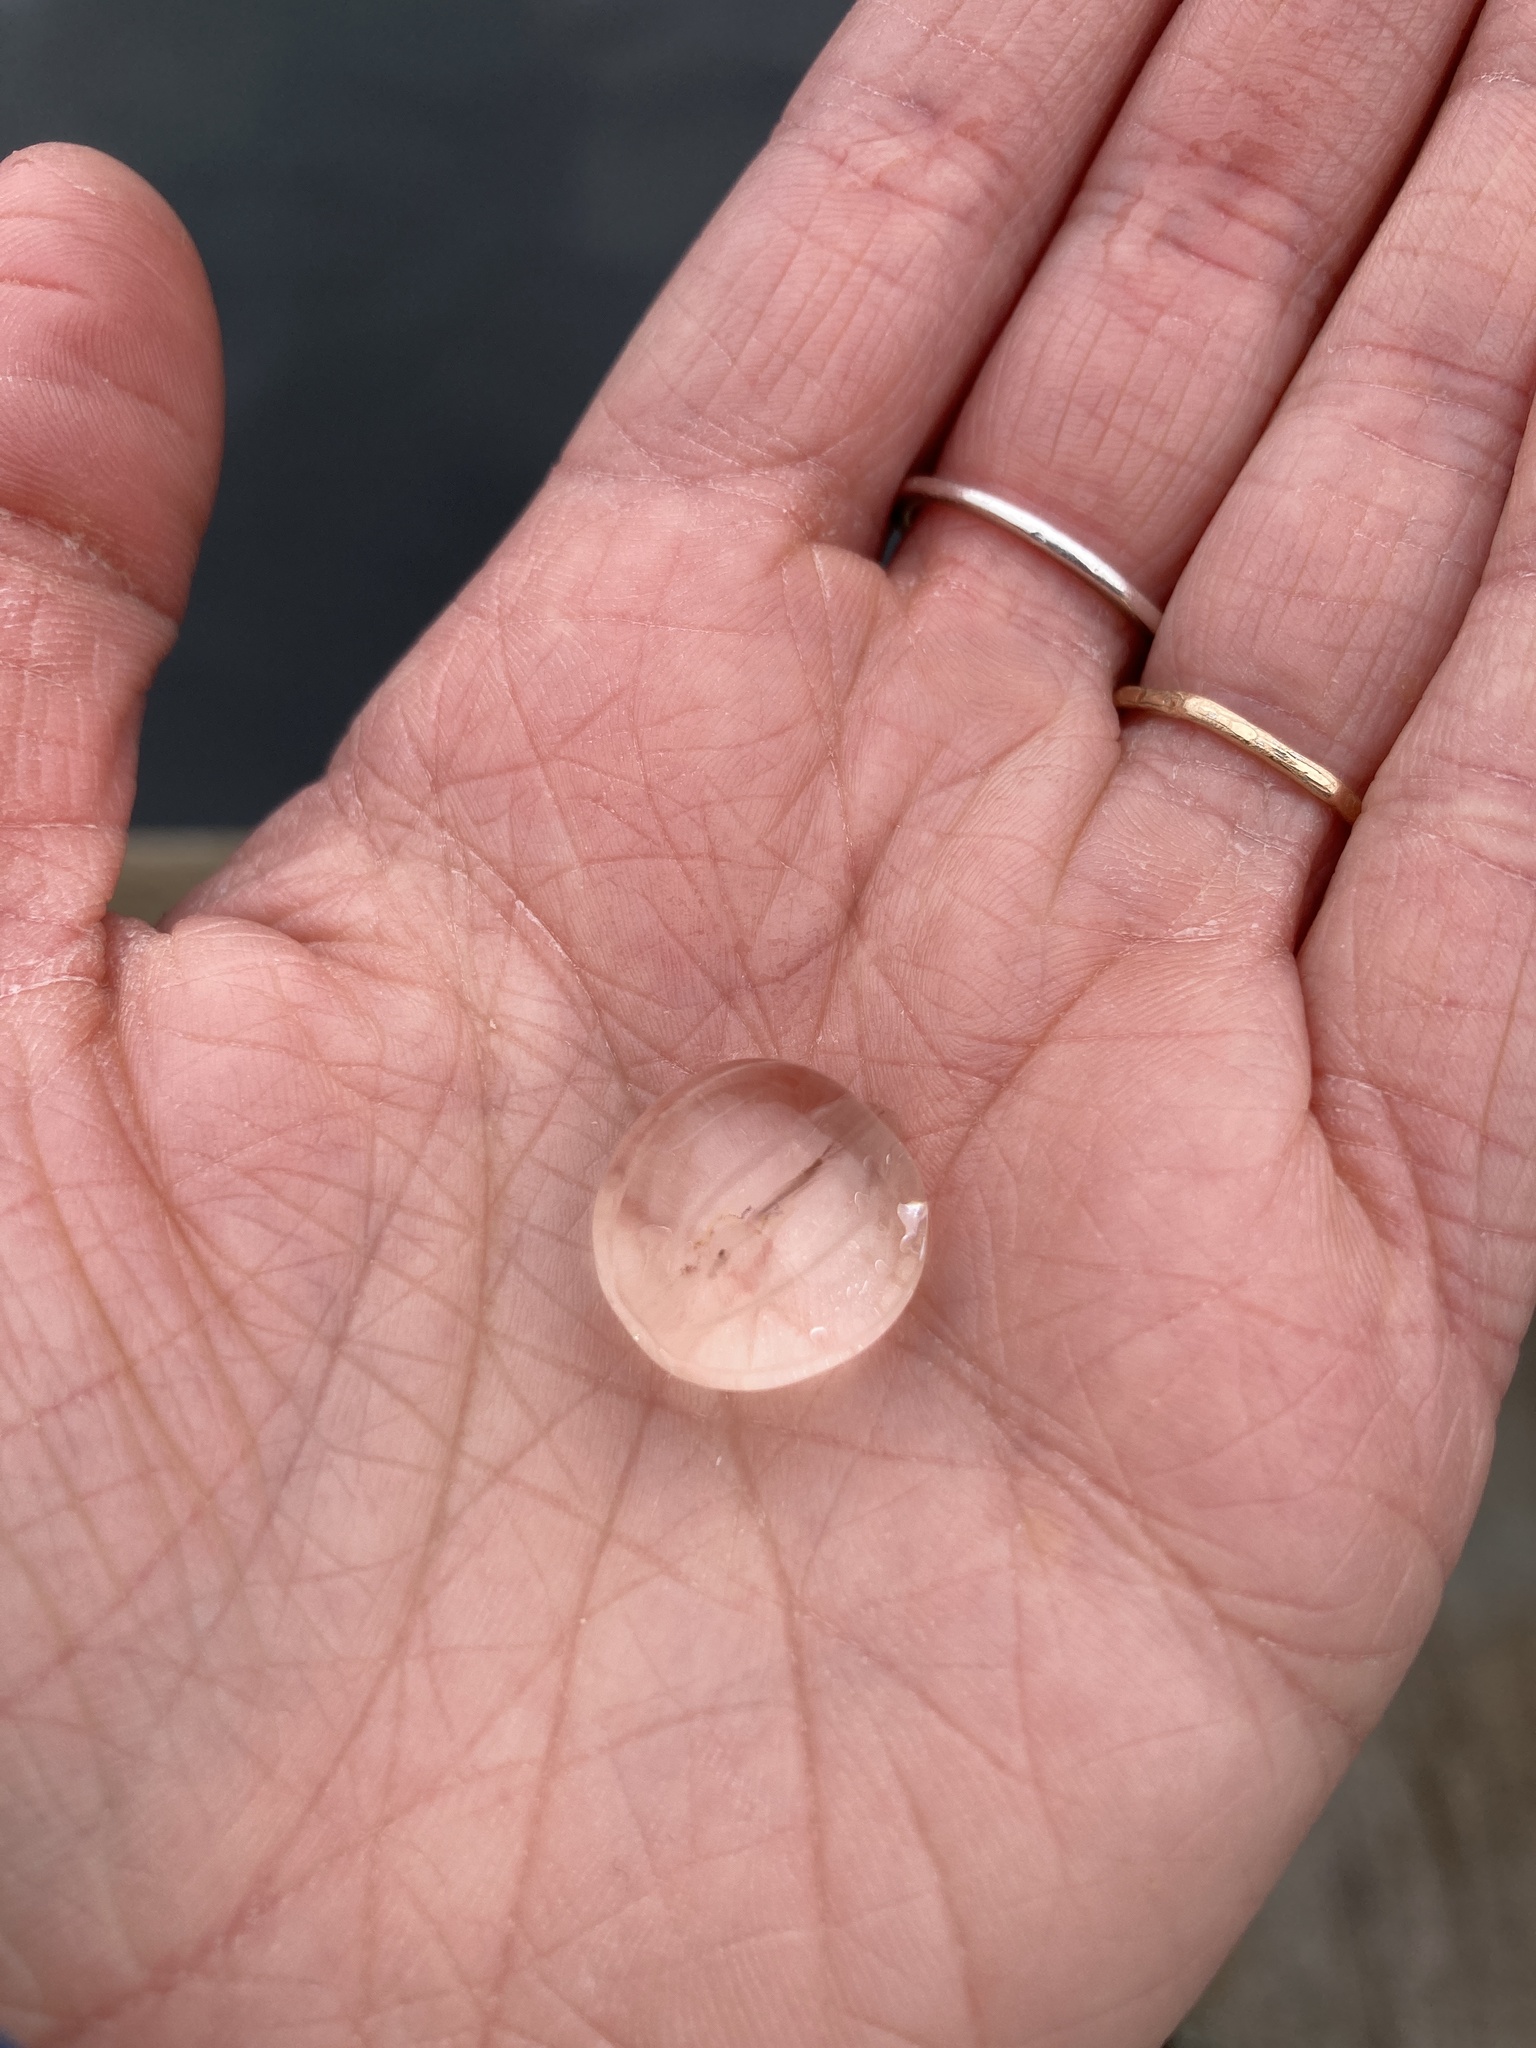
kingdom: Animalia
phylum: Ctenophora
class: Tentaculata
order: Cydippida
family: Pleurobrachiidae
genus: Pleurobrachia
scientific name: Pleurobrachia bachei
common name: Pacific sea gooseberry
